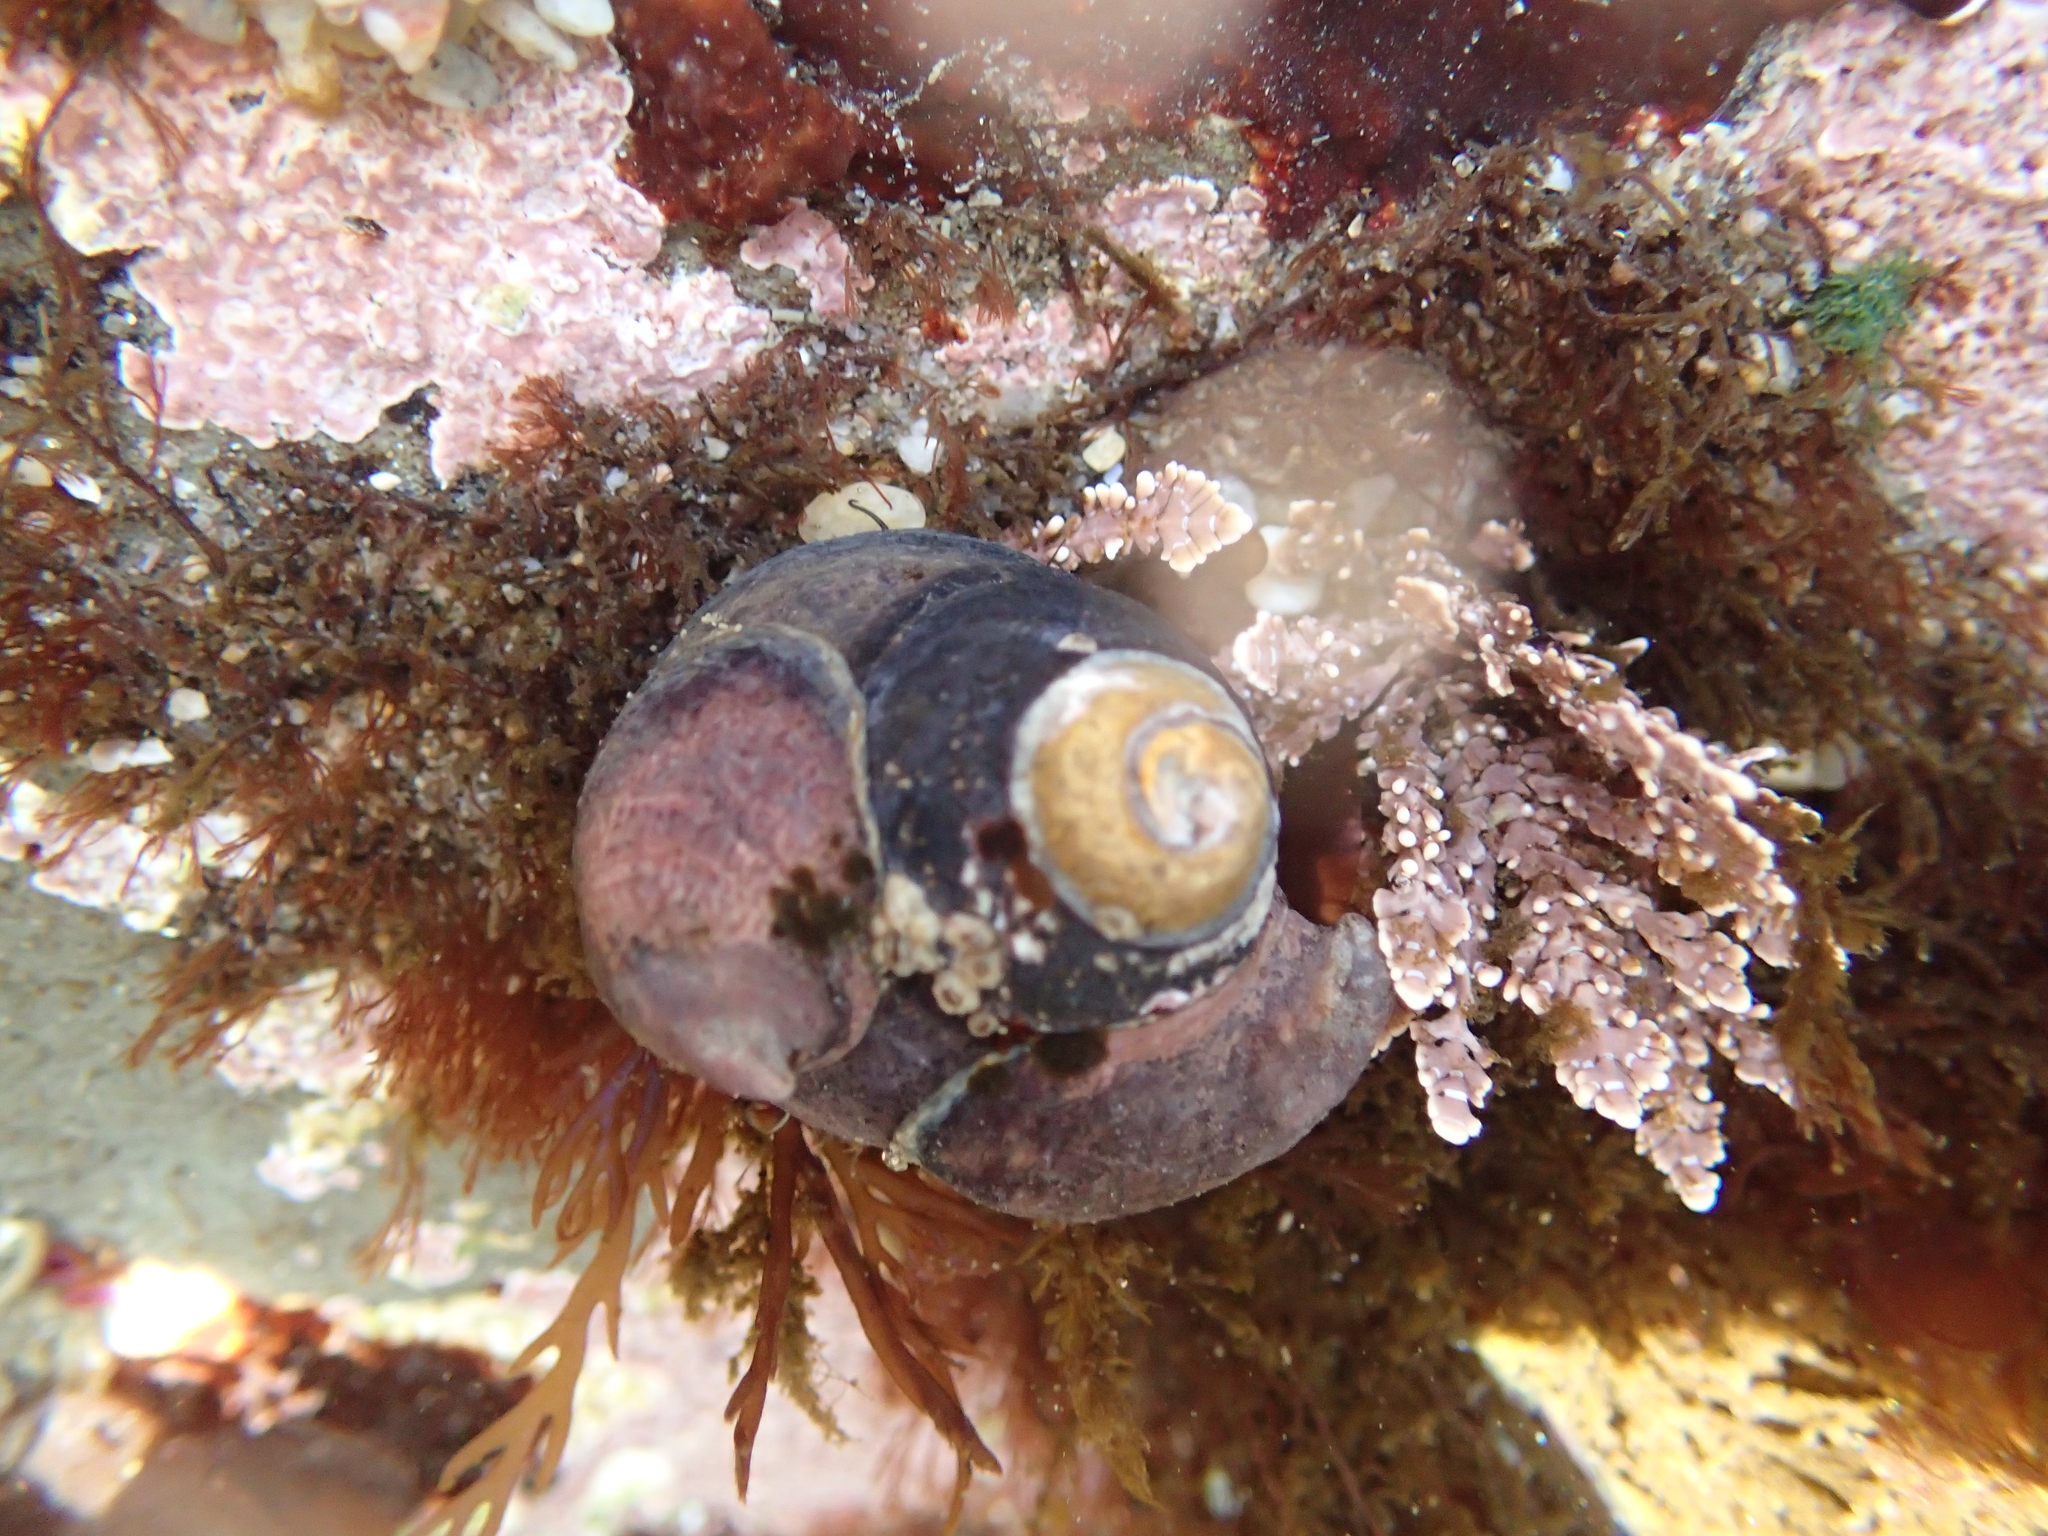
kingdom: Animalia
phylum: Mollusca
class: Gastropoda
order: Trochida
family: Tegulidae
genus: Tegula
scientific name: Tegula funebralis
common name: Black tegula
